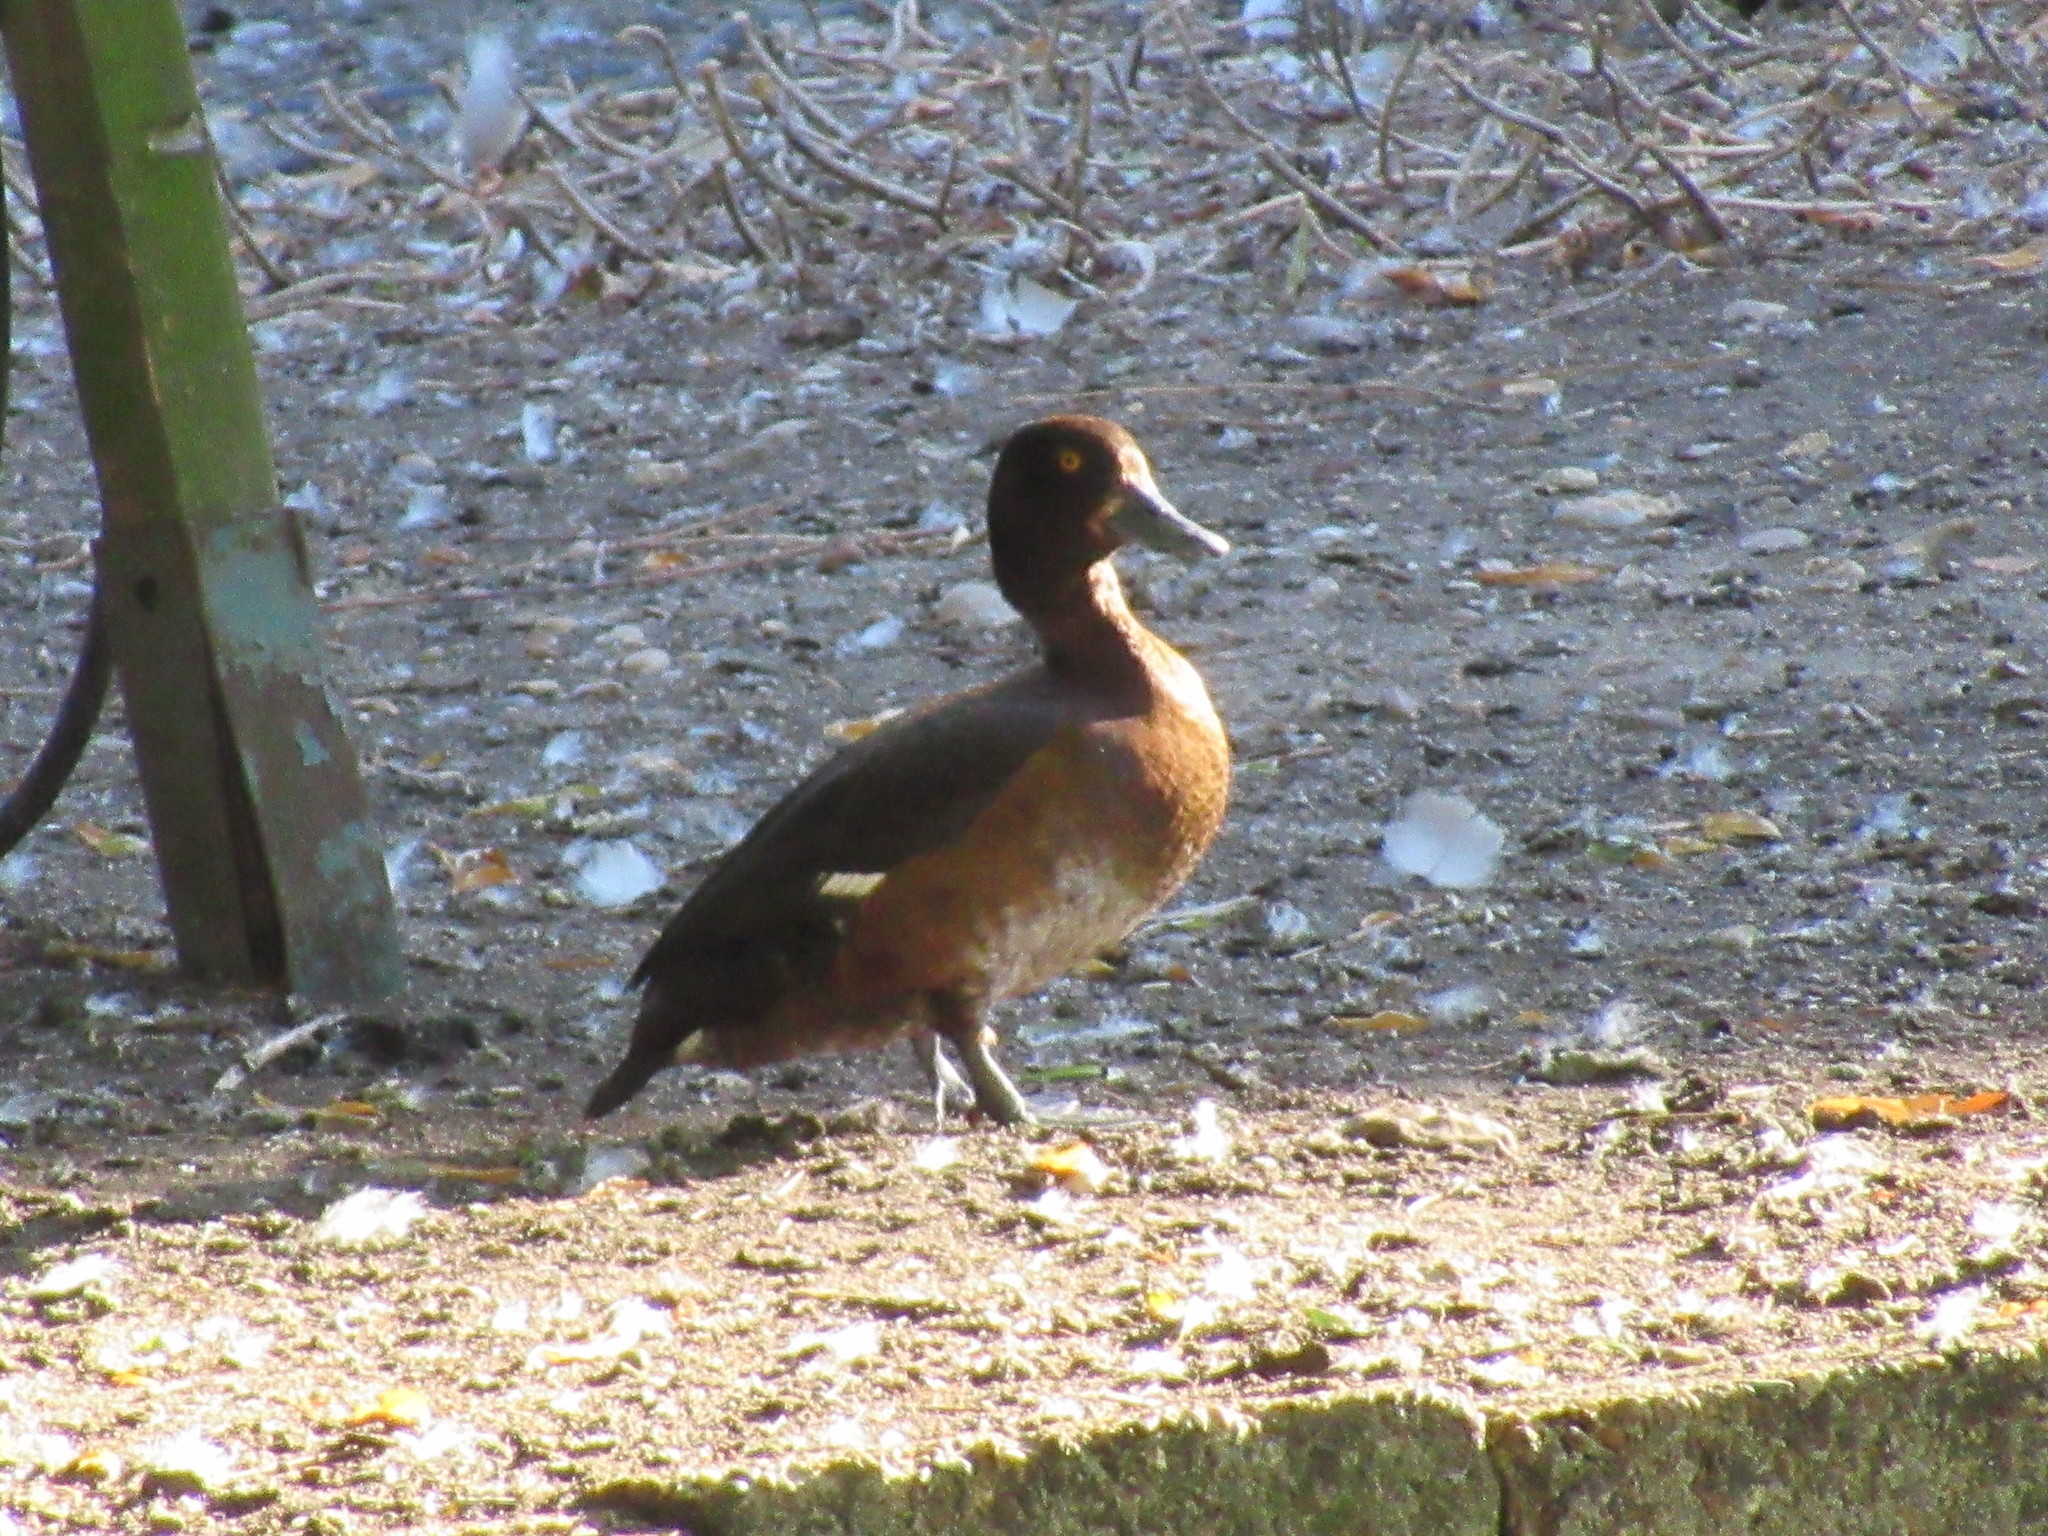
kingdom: Animalia
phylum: Chordata
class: Aves
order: Anseriformes
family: Anatidae
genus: Aythya
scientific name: Aythya fuligula
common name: Tufted duck
